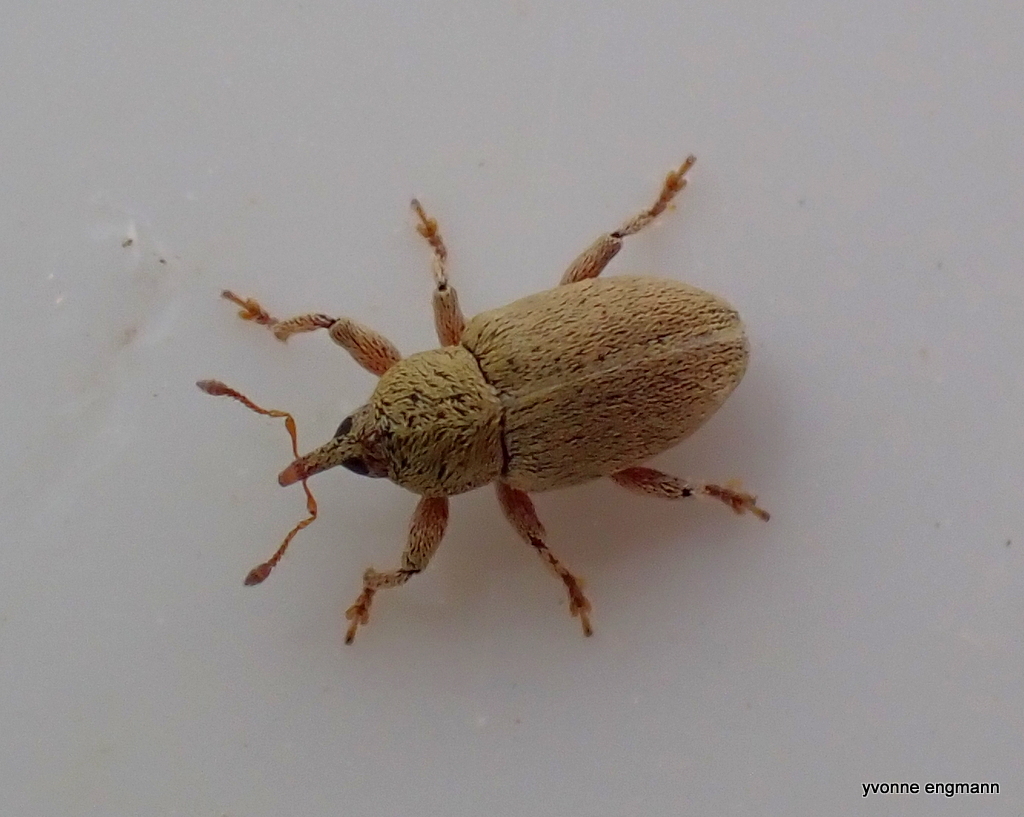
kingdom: Animalia
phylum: Arthropoda
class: Insecta
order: Coleoptera
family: Curculionidae
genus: Tychius
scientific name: Tychius breviusculus
